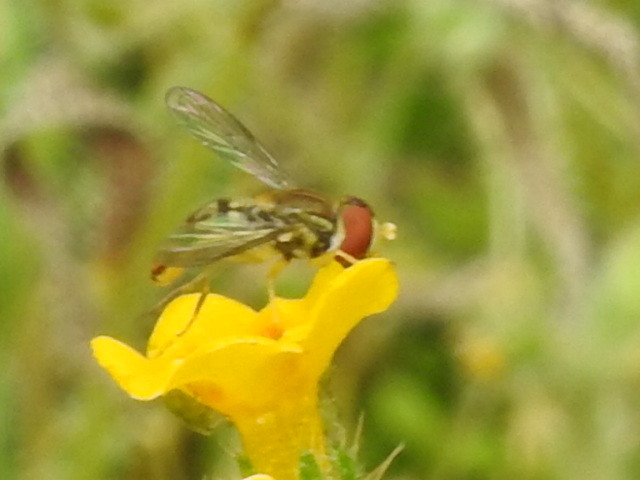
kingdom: Animalia
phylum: Arthropoda
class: Insecta
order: Diptera
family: Syrphidae
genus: Toxomerus
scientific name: Toxomerus marginatus
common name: Syrphid fly
